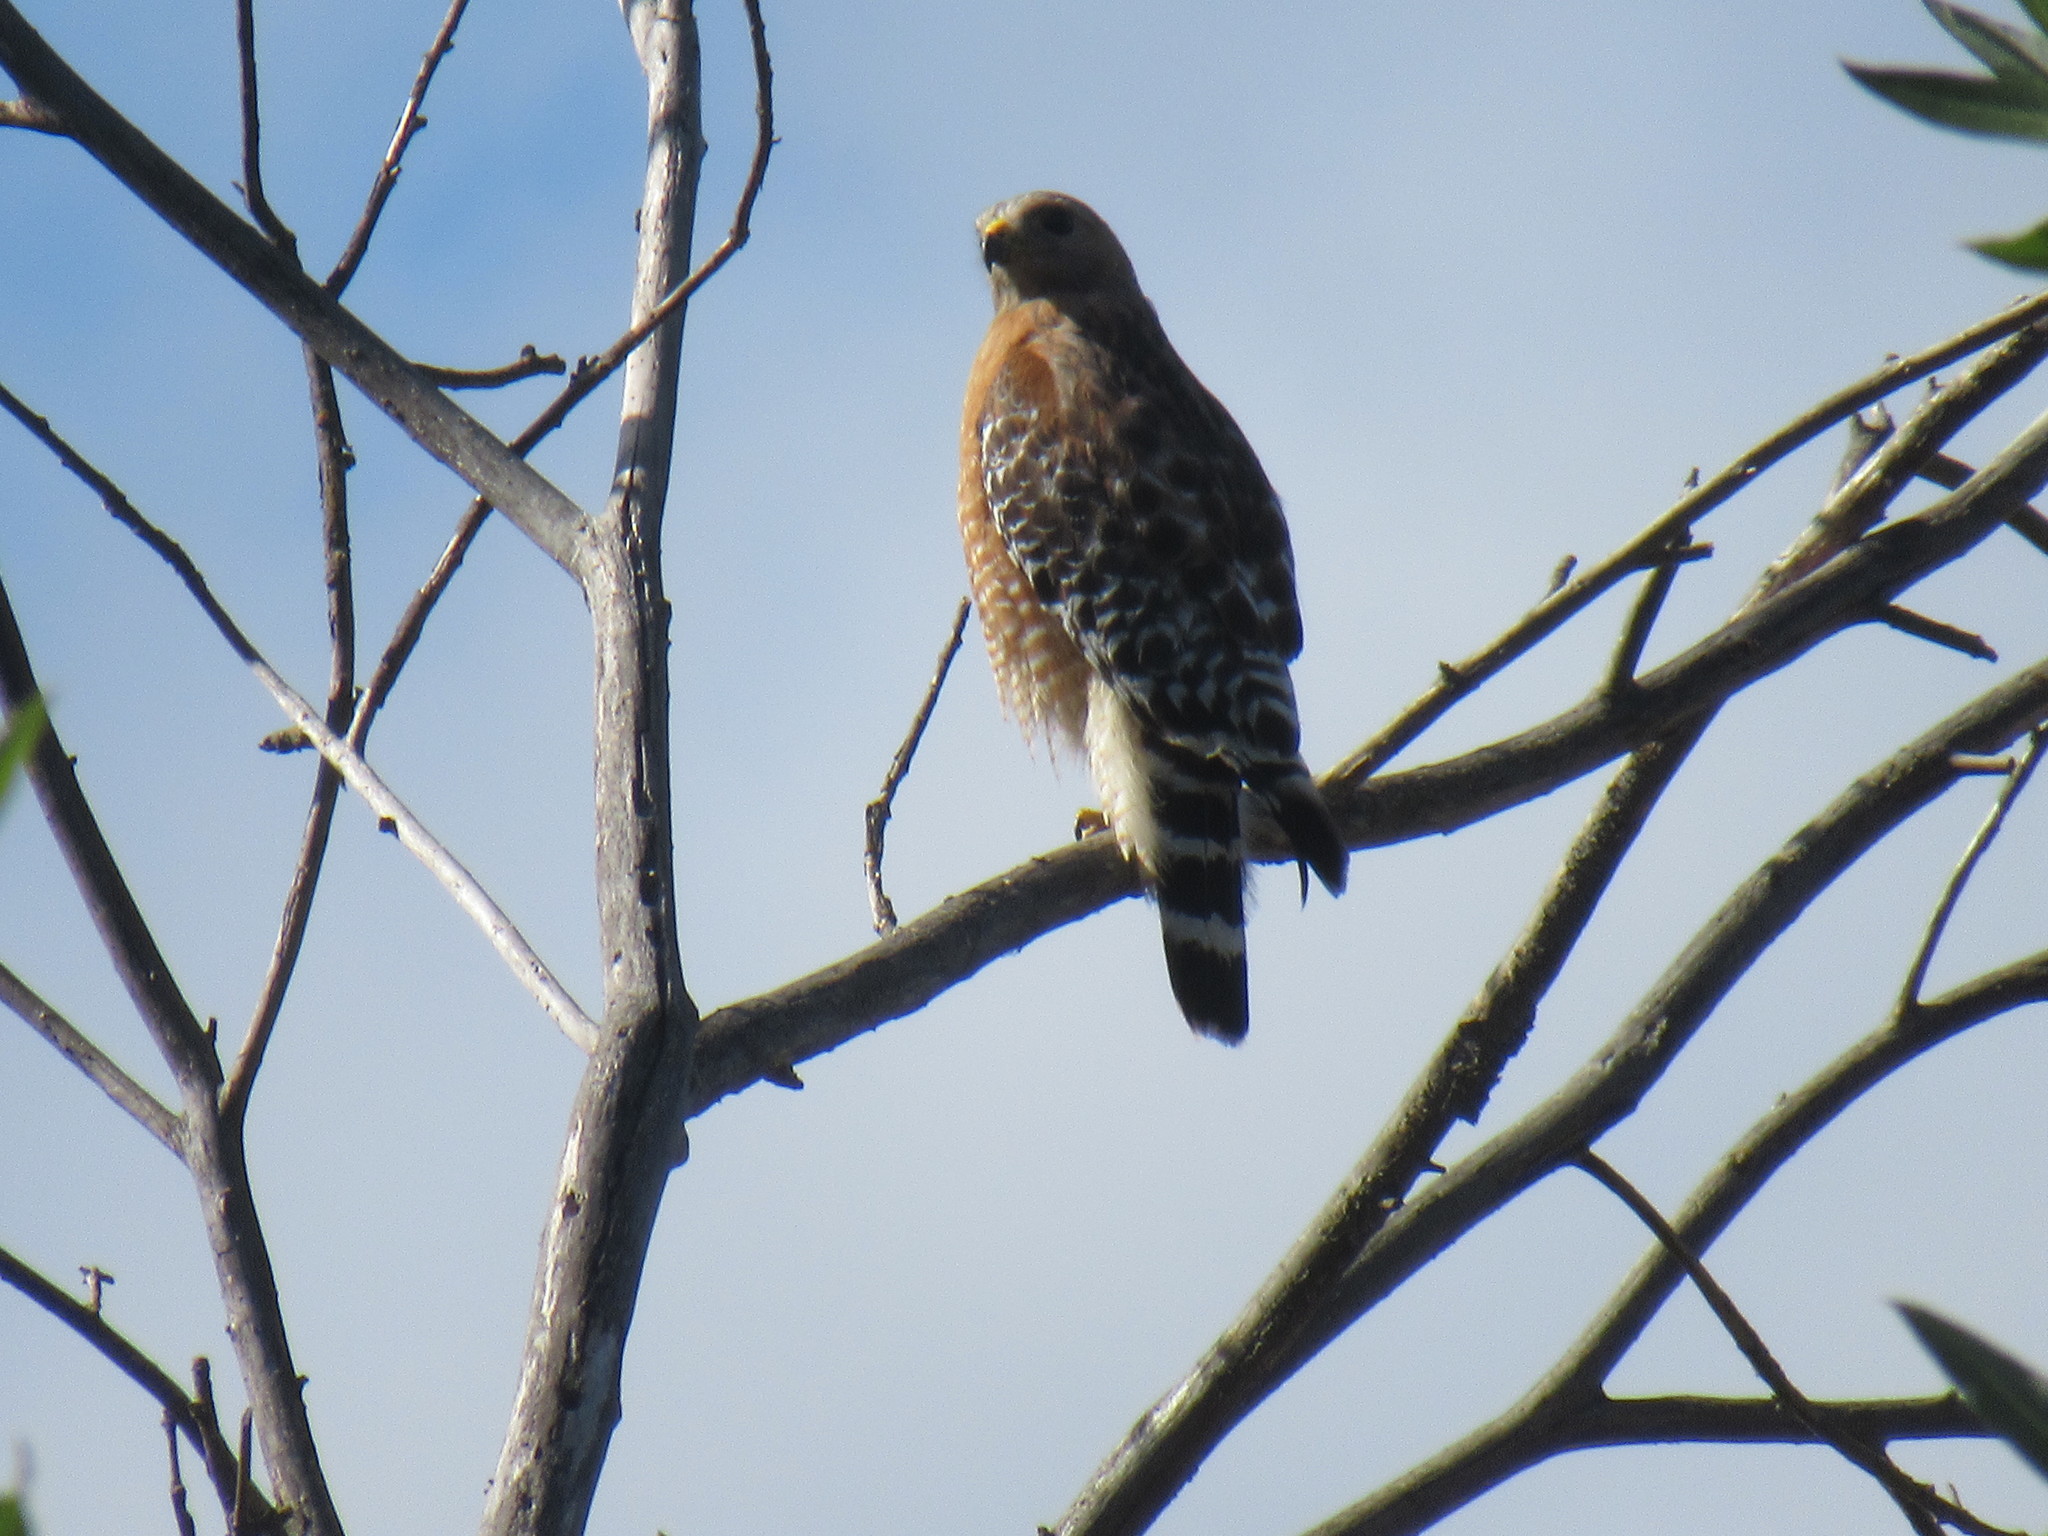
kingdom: Animalia
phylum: Chordata
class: Aves
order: Accipitriformes
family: Accipitridae
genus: Buteo
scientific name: Buteo lineatus
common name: Red-shouldered hawk
